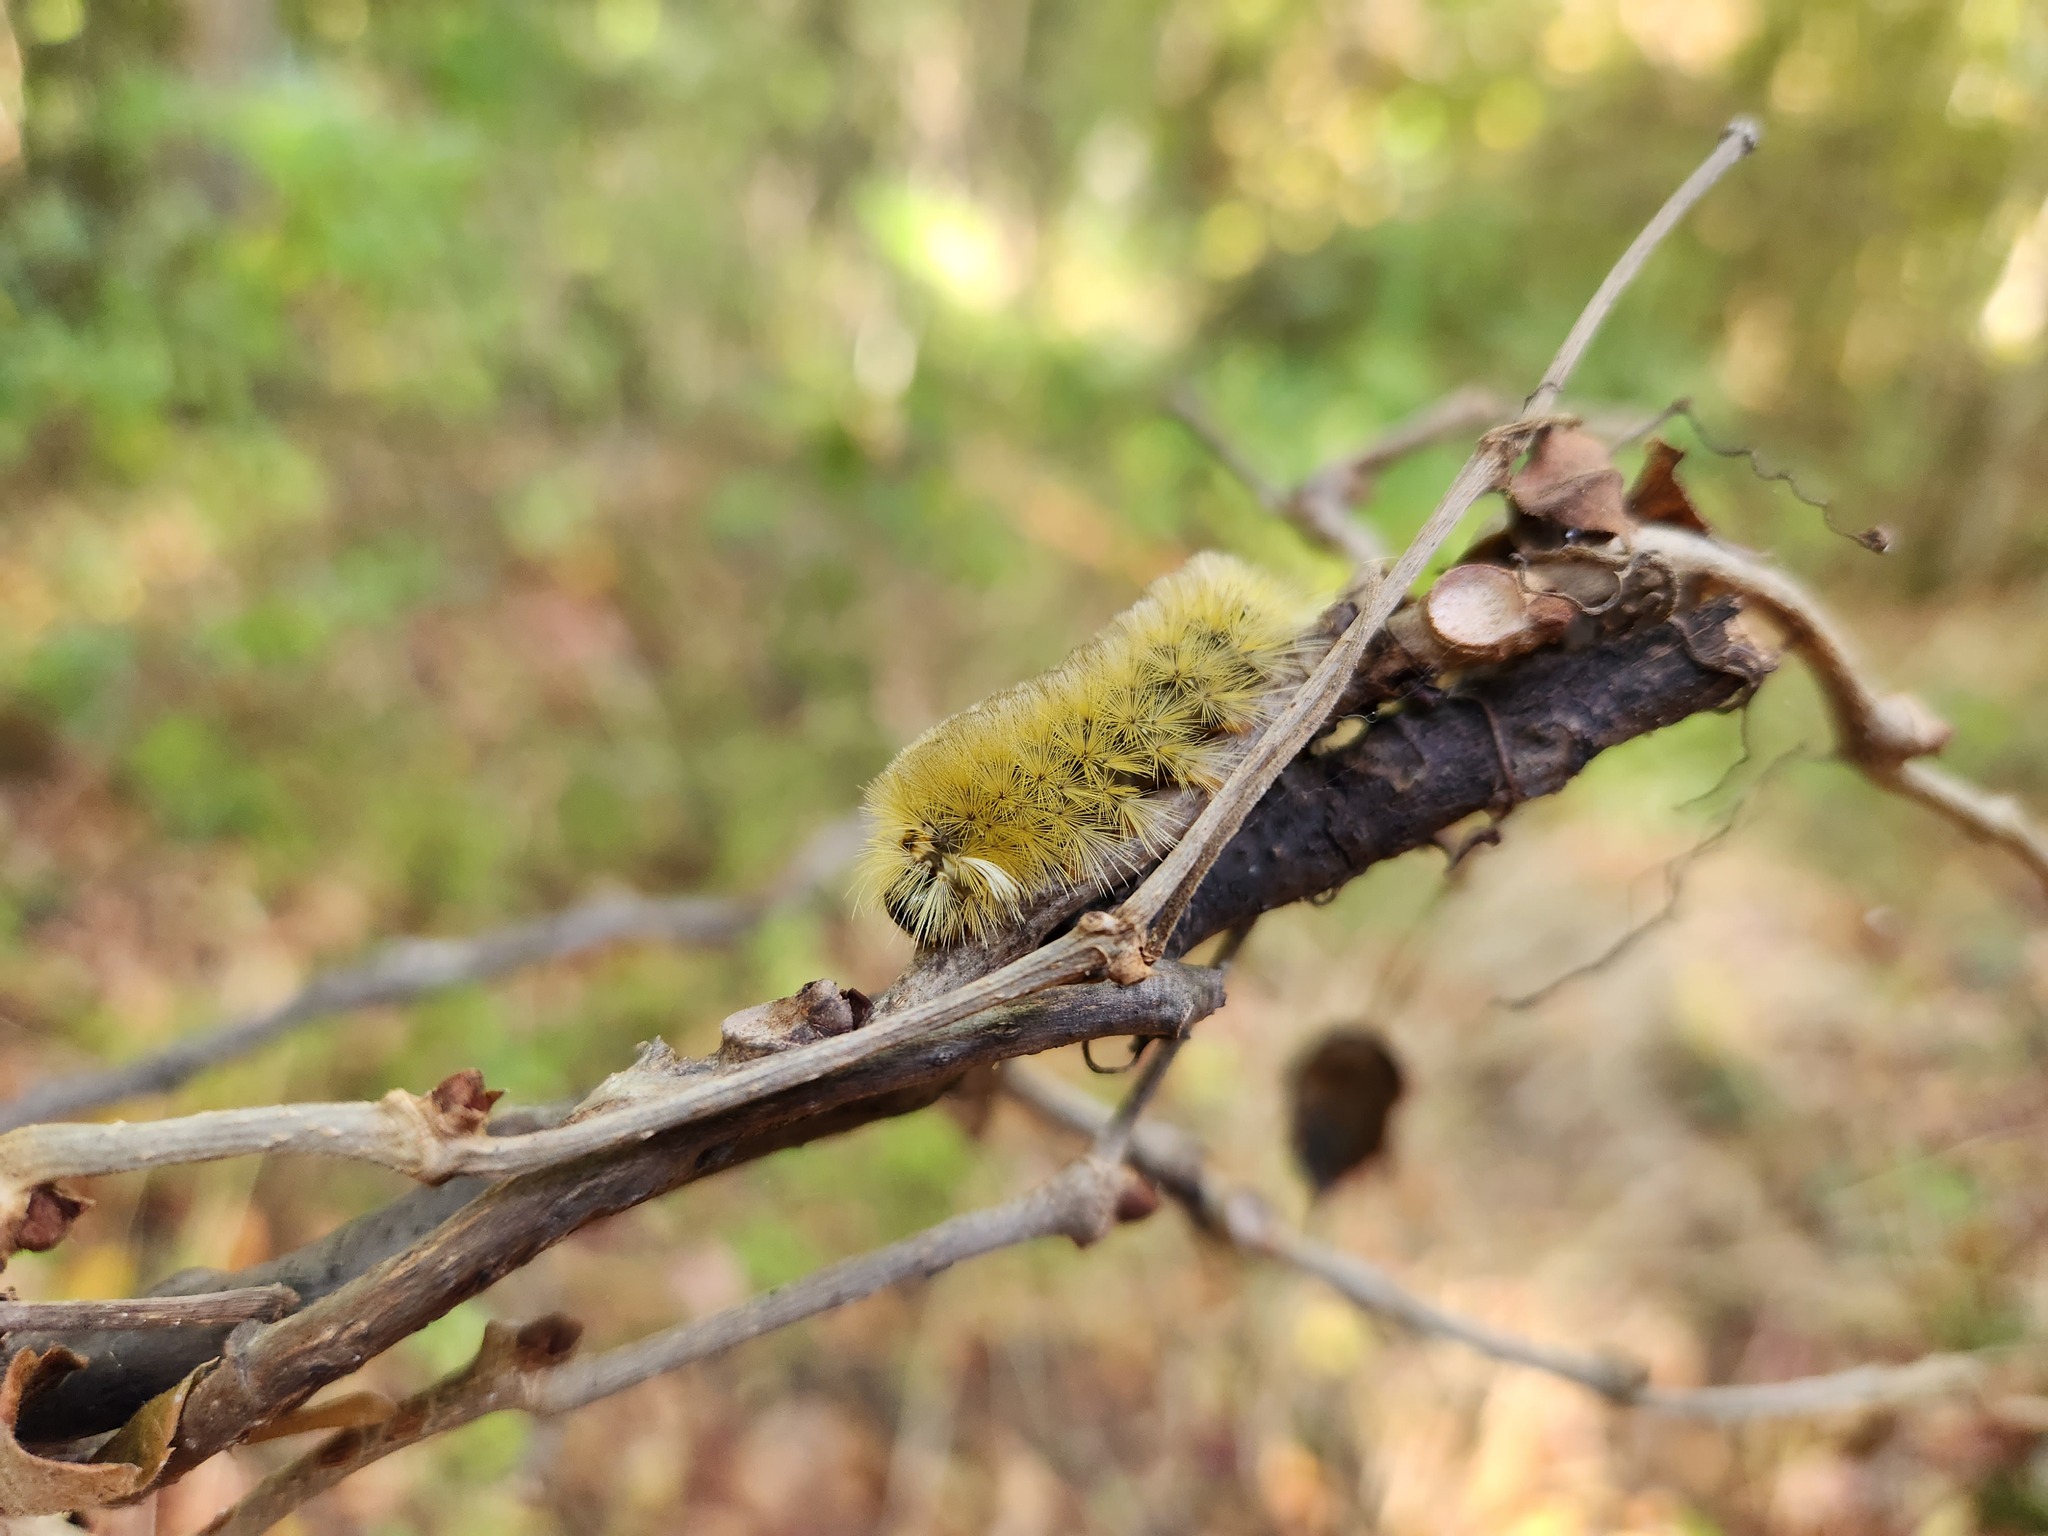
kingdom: Animalia
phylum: Arthropoda
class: Insecta
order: Lepidoptera
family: Erebidae
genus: Halysidota
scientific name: Halysidota tessellaris
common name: Banded tussock moth
